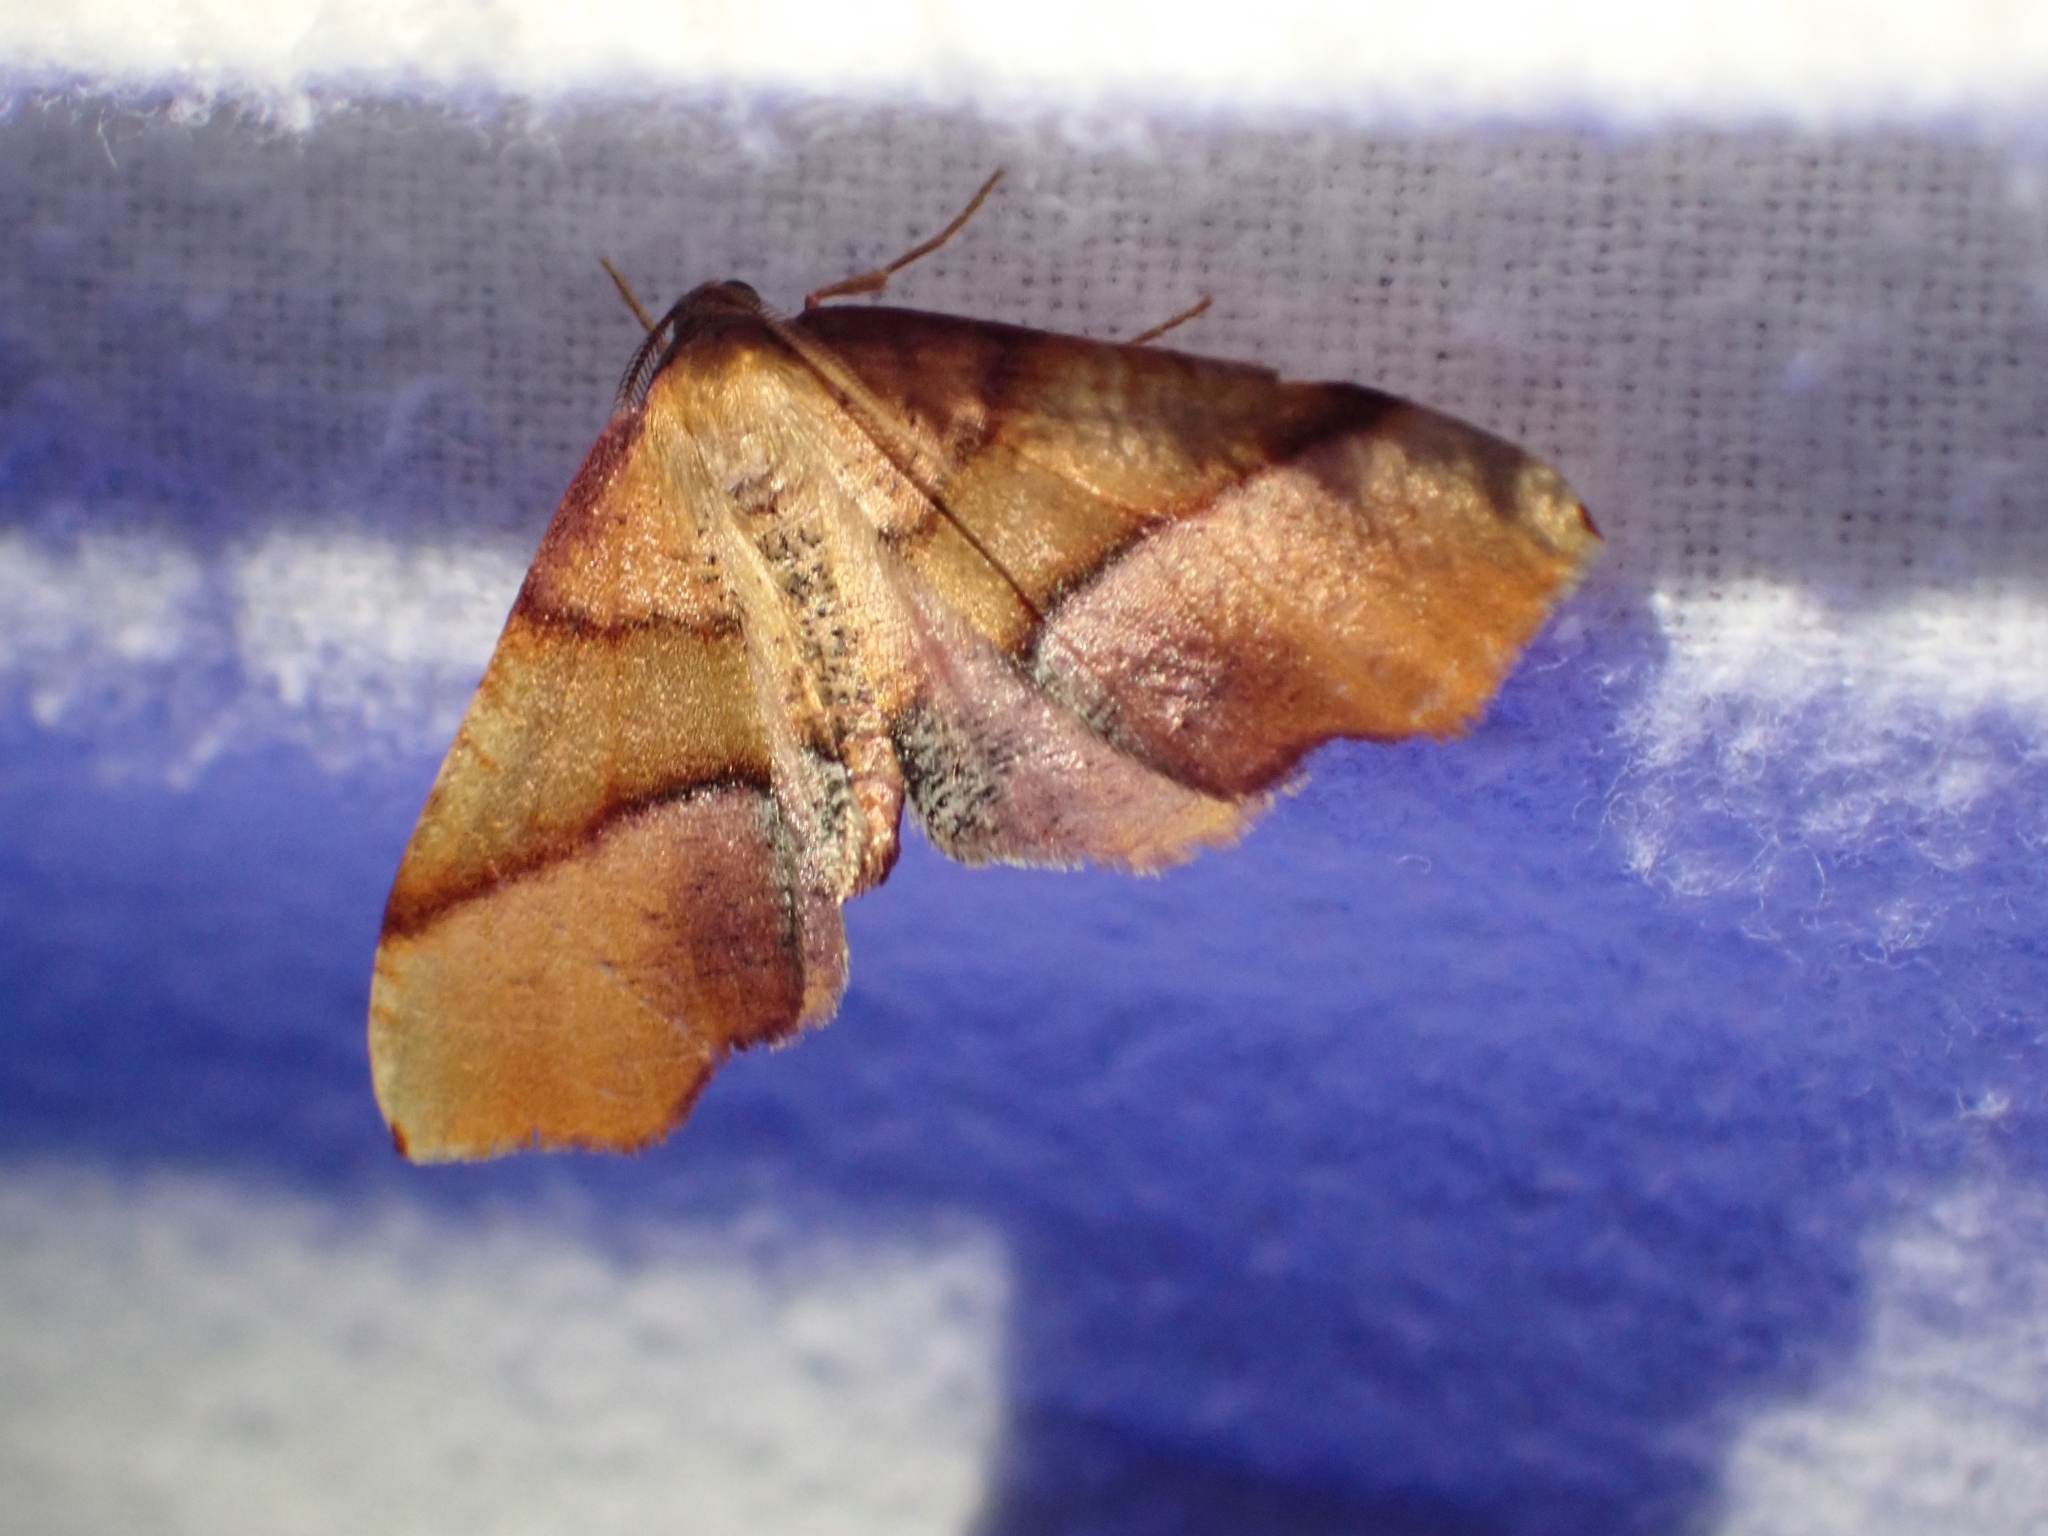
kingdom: Animalia
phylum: Arthropoda
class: Insecta
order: Lepidoptera
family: Geometridae
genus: Plagodis
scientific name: Plagodis phlogosaria
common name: Straight-lined plagodis
